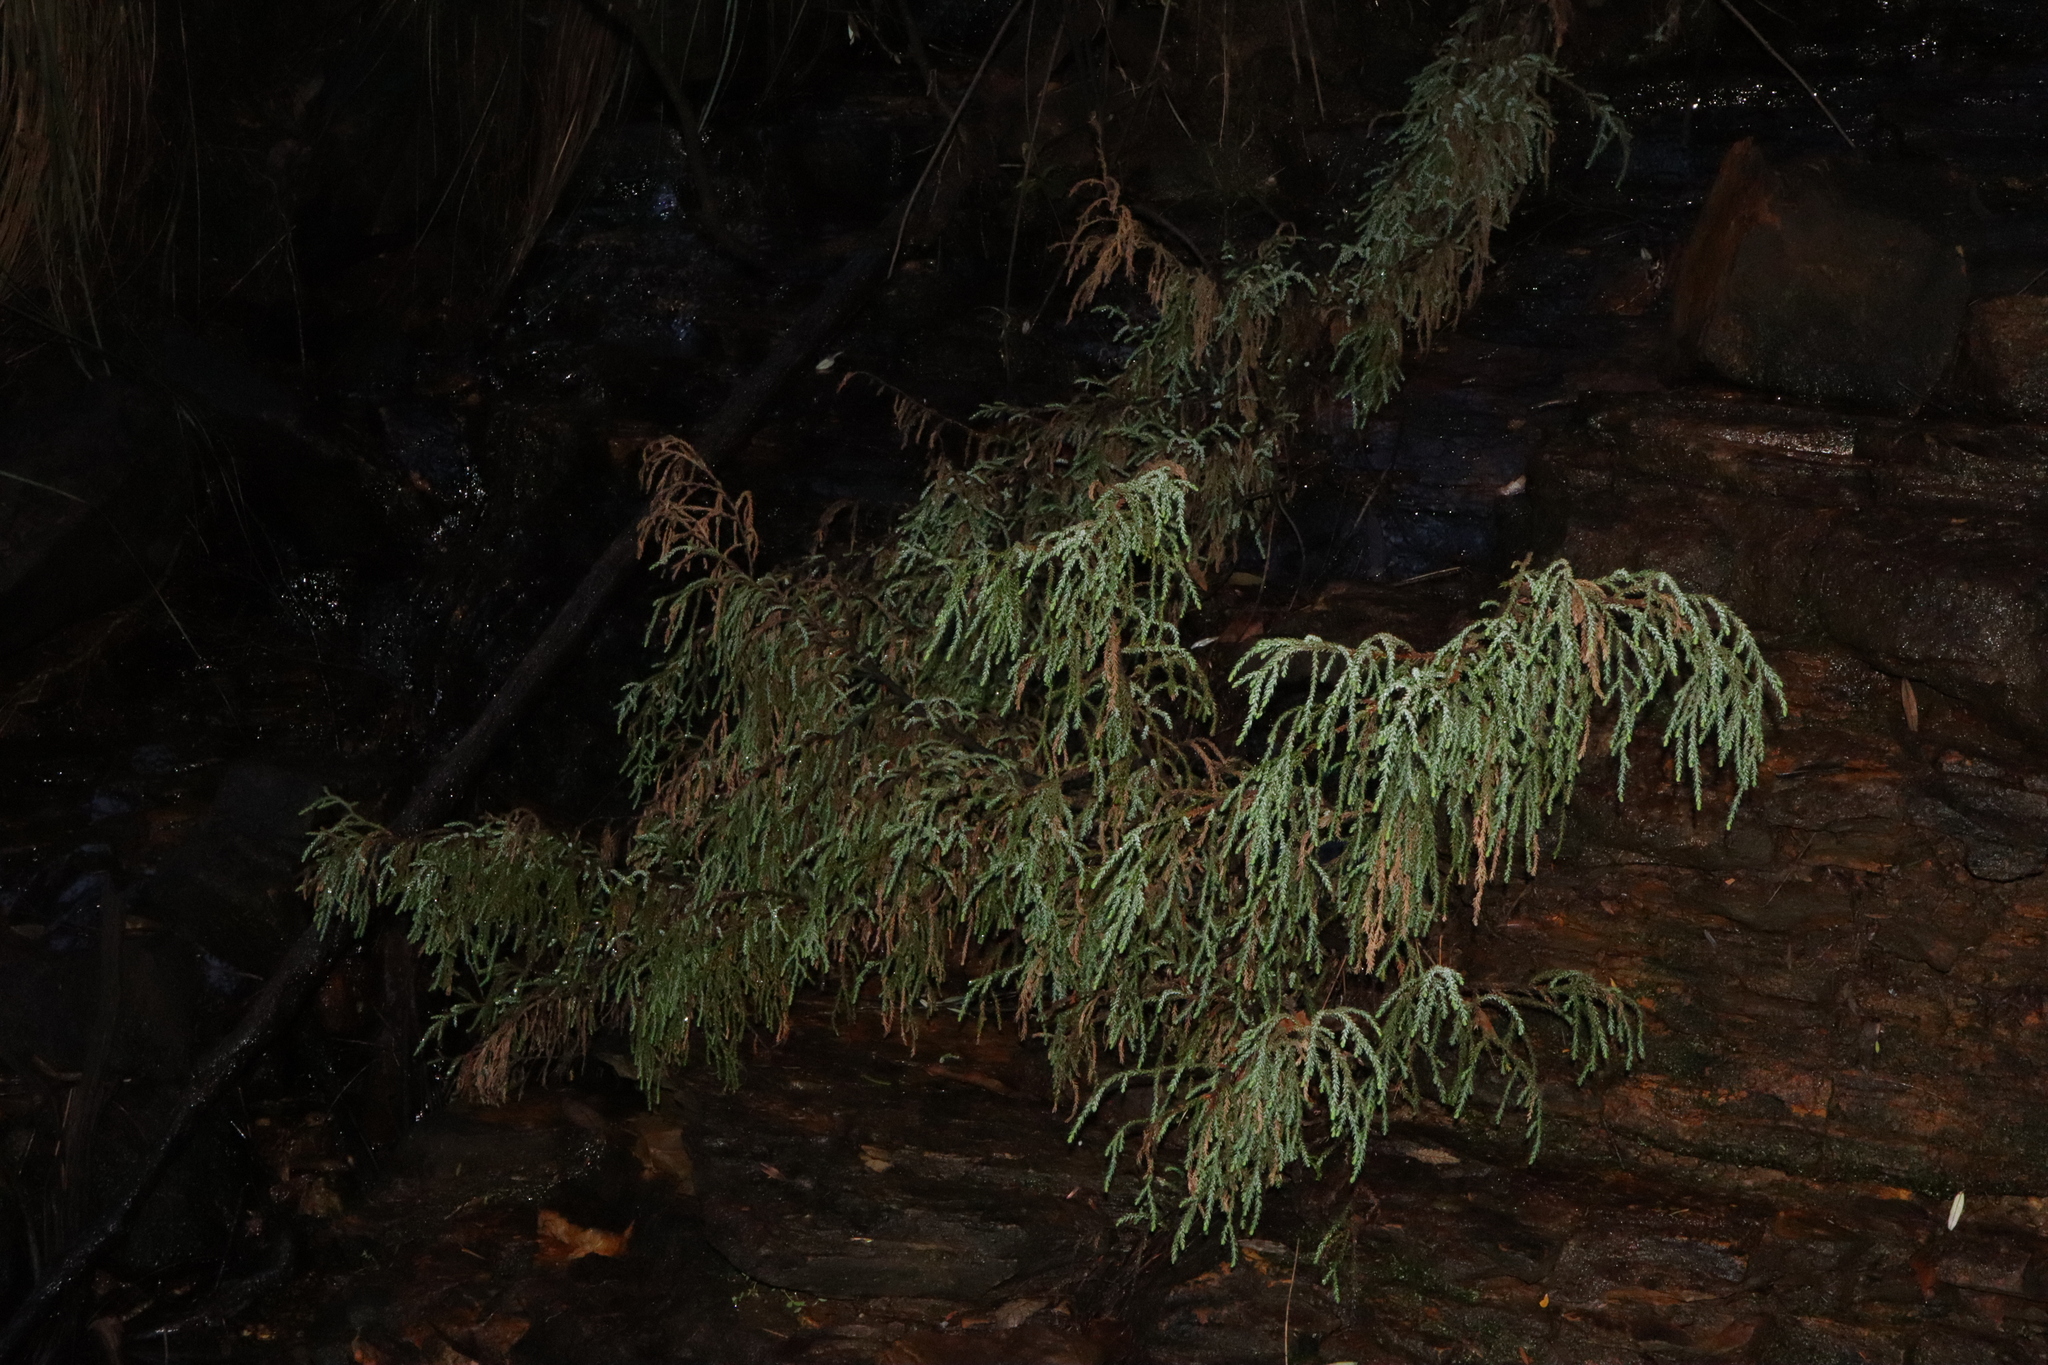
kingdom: Plantae
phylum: Tracheophyta
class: Pinopsida
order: Pinales
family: Podocarpaceae
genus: Pherosphaera
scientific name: Pherosphaera fitzgeraldii
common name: Dwarf mountain pine
